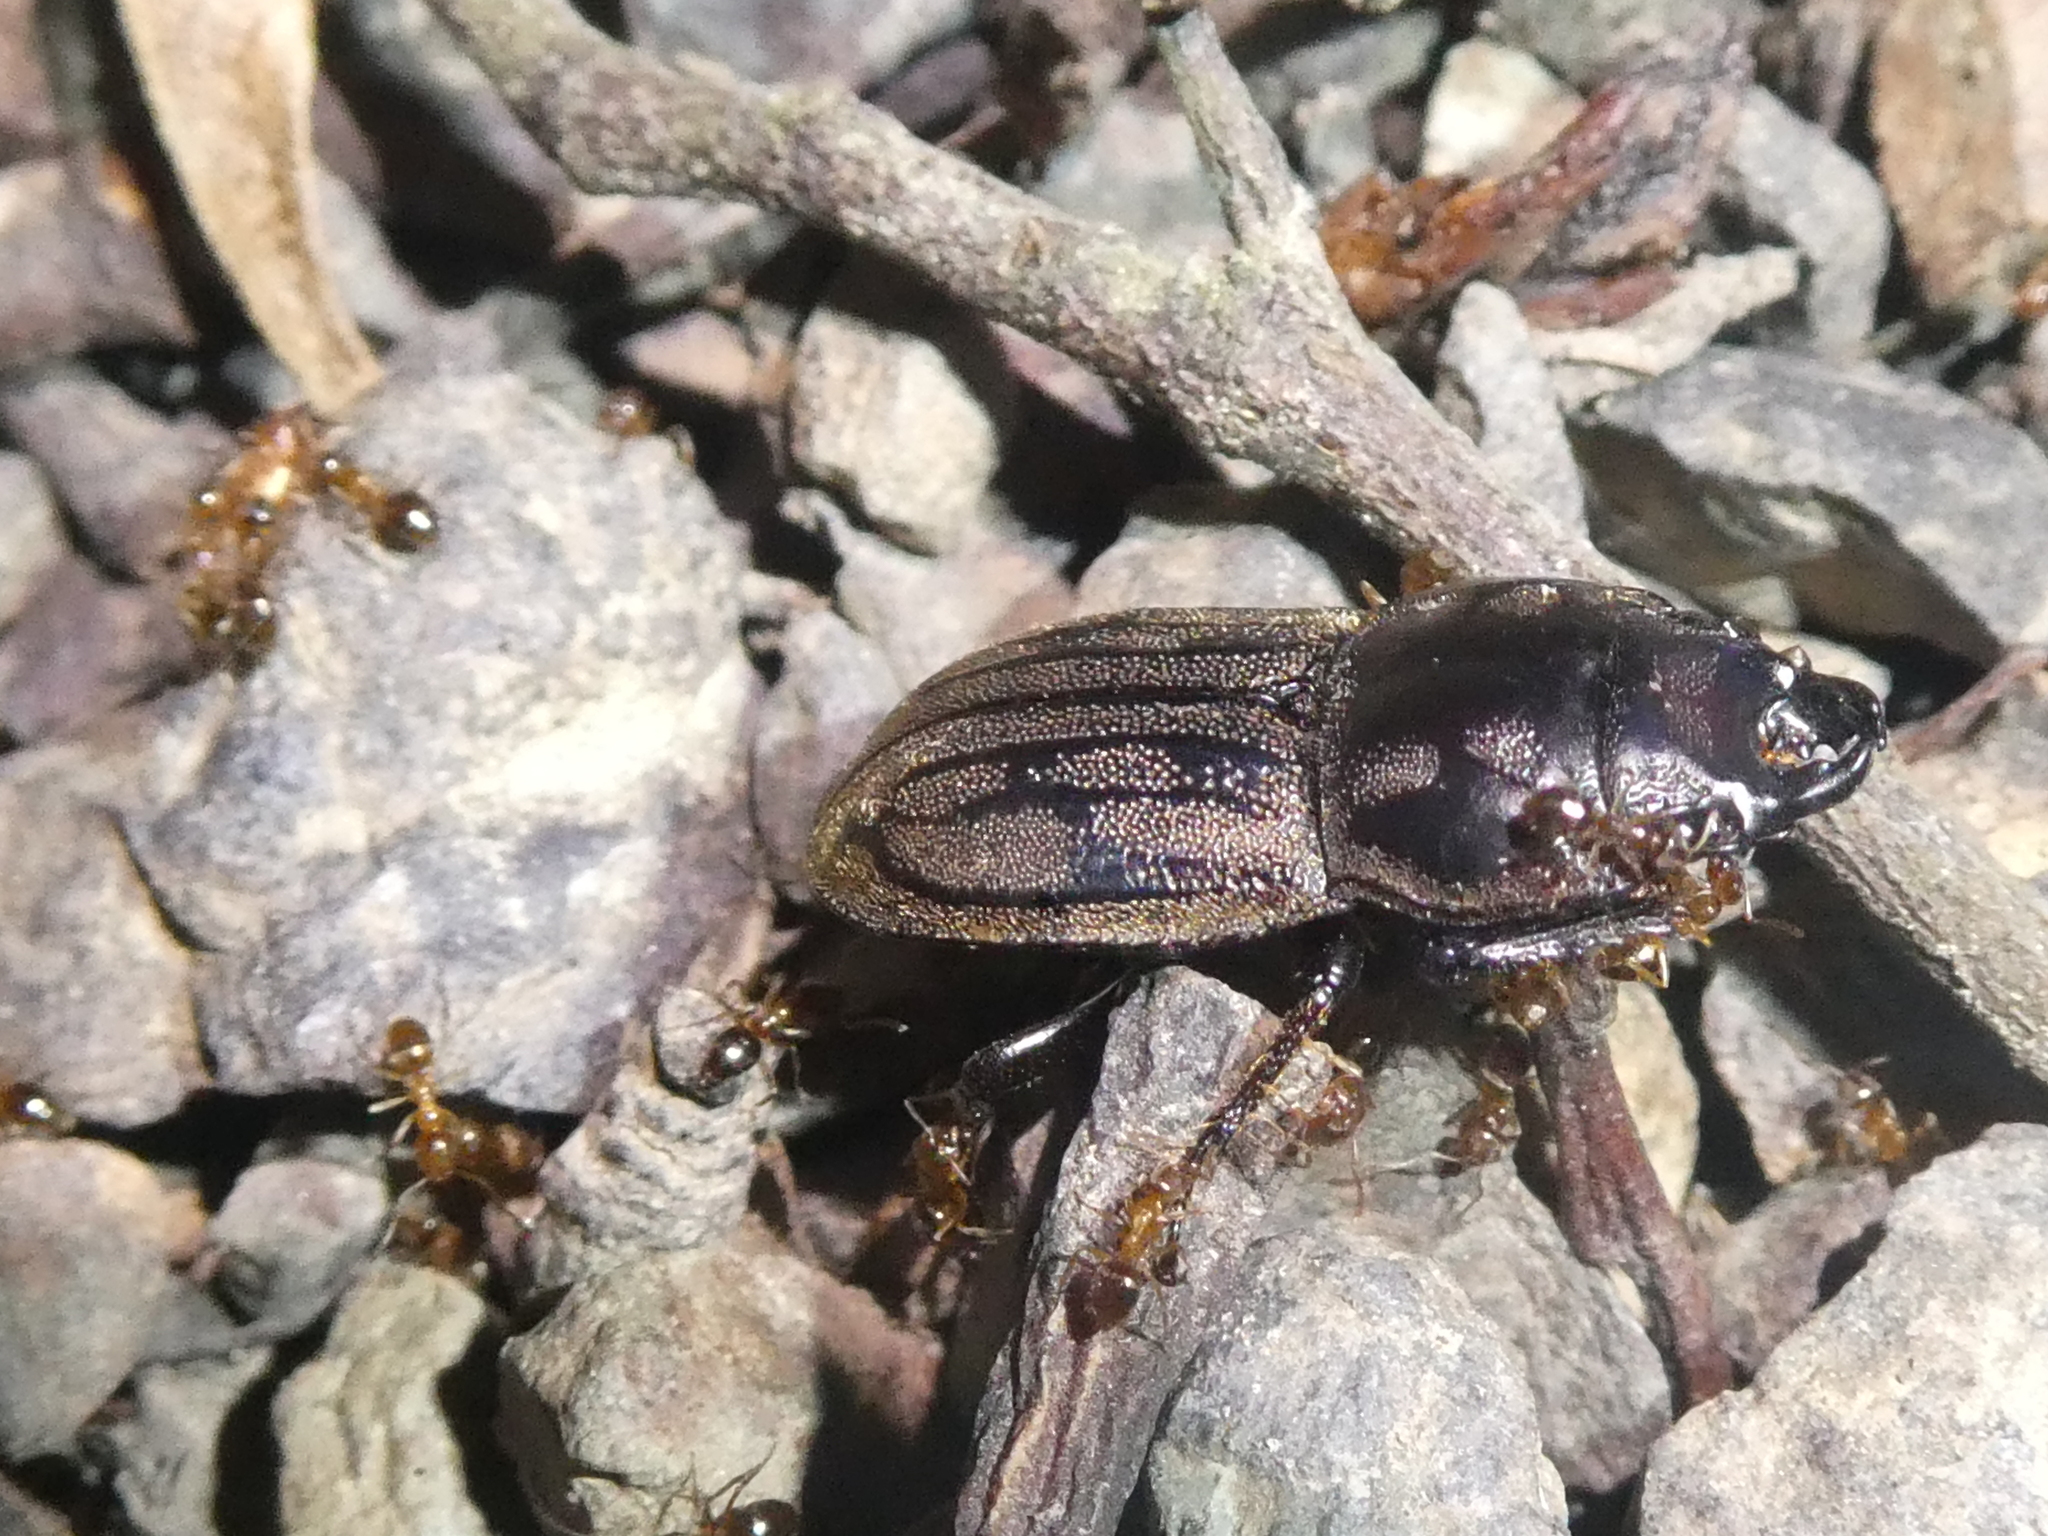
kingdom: Animalia
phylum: Arthropoda
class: Insecta
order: Coleoptera
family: Lucanidae
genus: Paralissotes
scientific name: Paralissotes reticulatus
